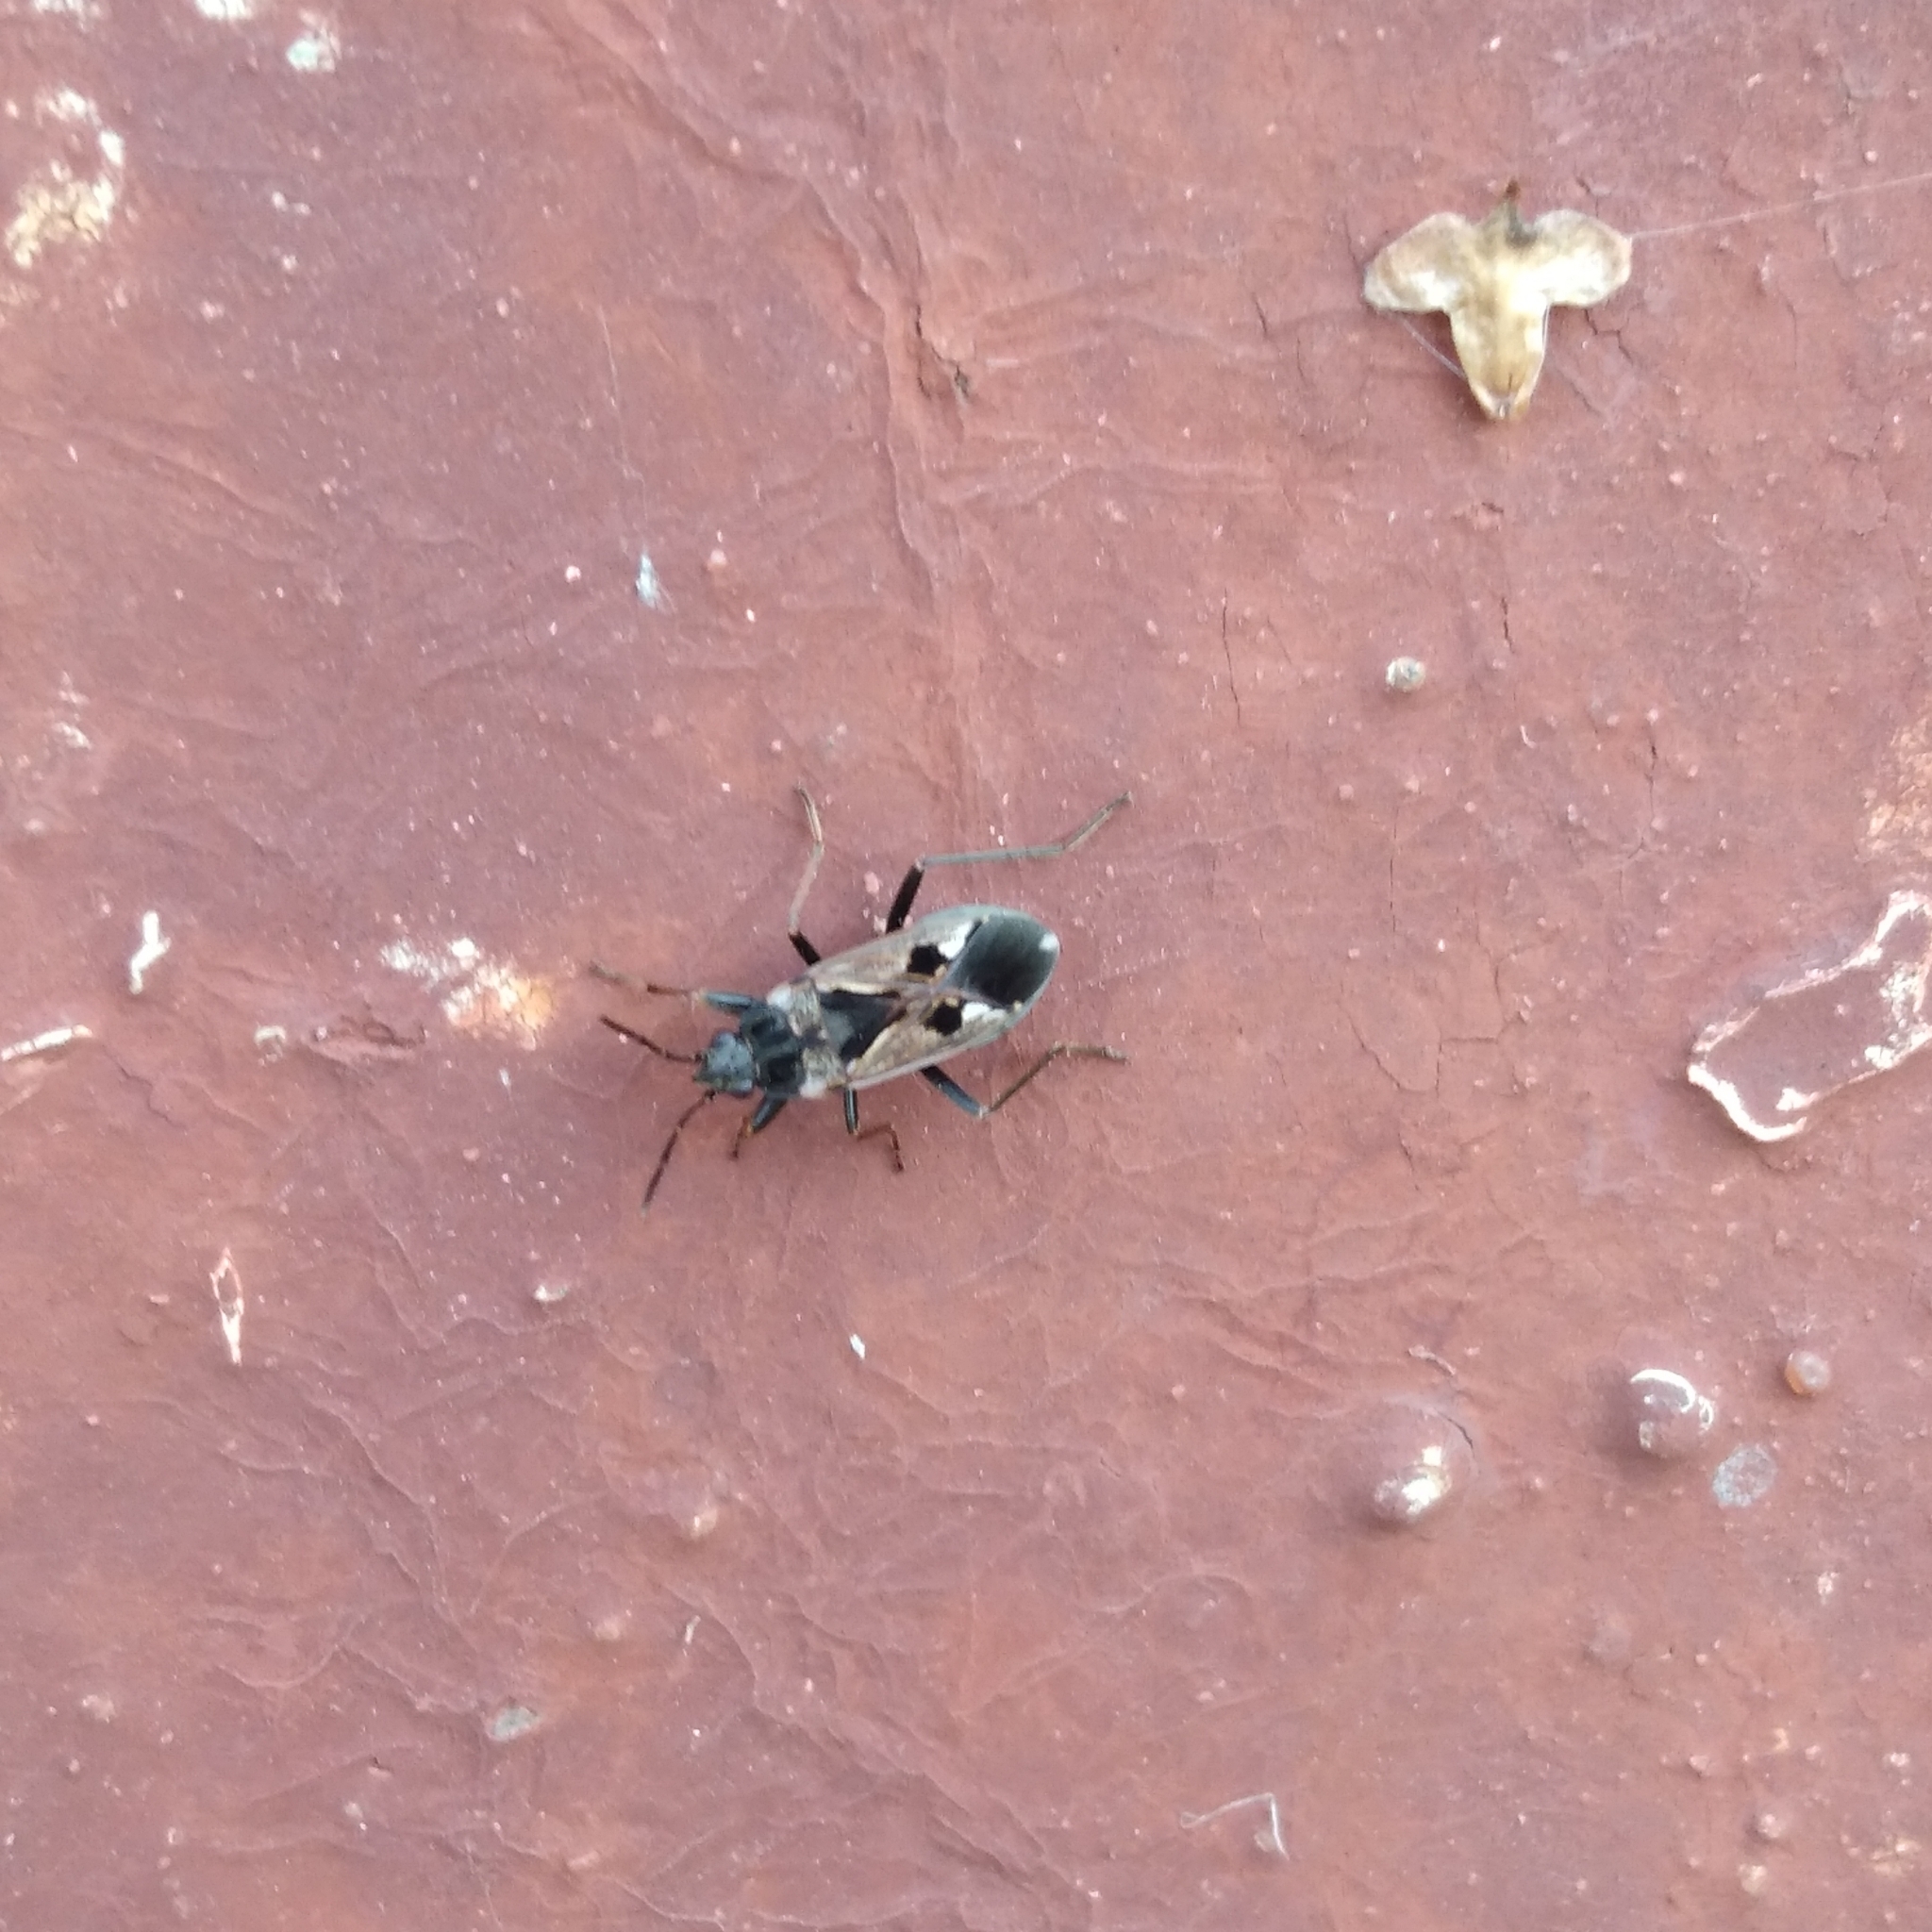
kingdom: Animalia
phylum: Arthropoda
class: Insecta
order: Hemiptera
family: Rhyparochromidae
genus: Rhyparochromus
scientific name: Rhyparochromus vulgaris
